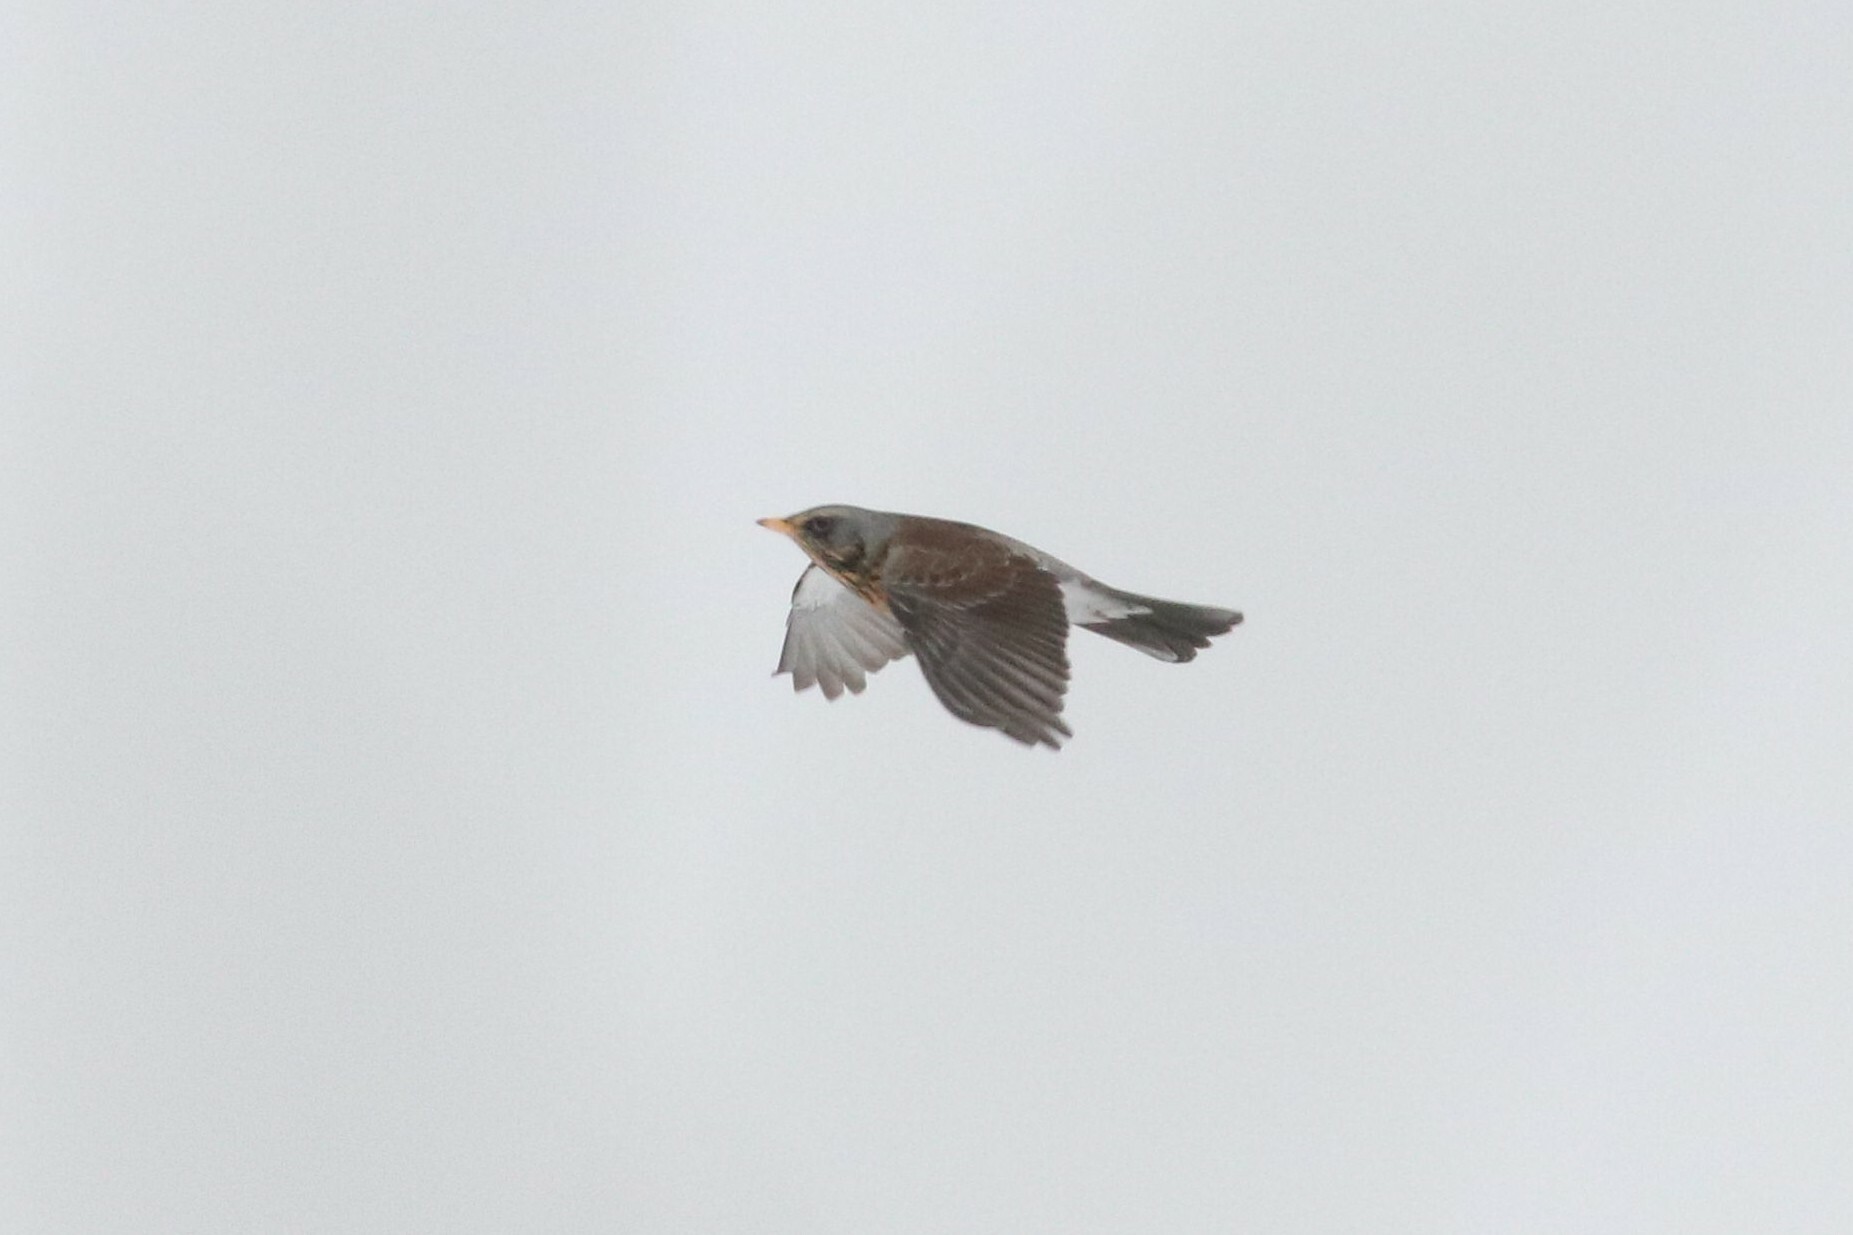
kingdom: Animalia
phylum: Chordata
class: Aves
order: Passeriformes
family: Turdidae
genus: Turdus
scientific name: Turdus pilaris
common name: Fieldfare
